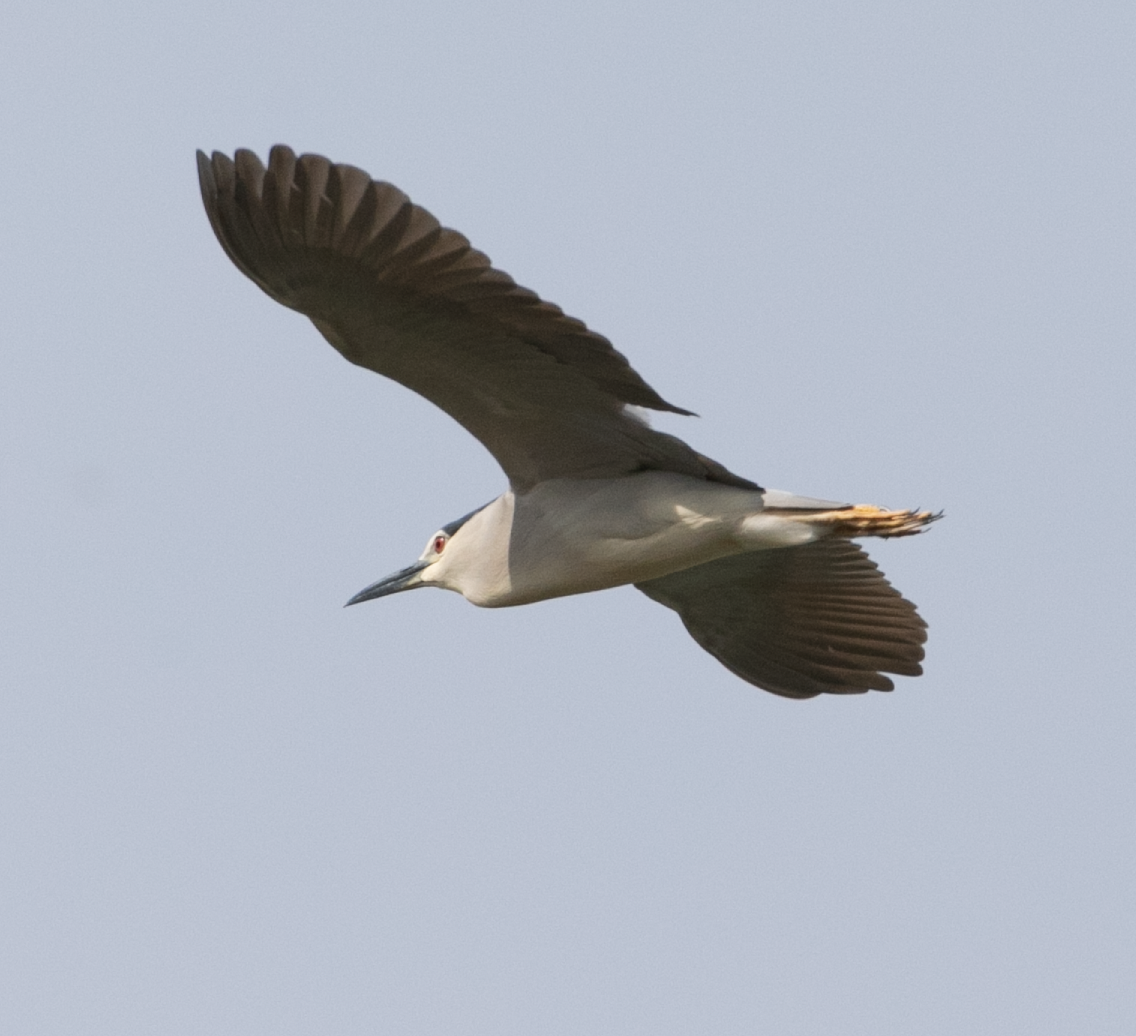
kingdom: Animalia
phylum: Chordata
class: Aves
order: Pelecaniformes
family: Ardeidae
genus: Nycticorax
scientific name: Nycticorax nycticorax
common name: Black-crowned night heron
